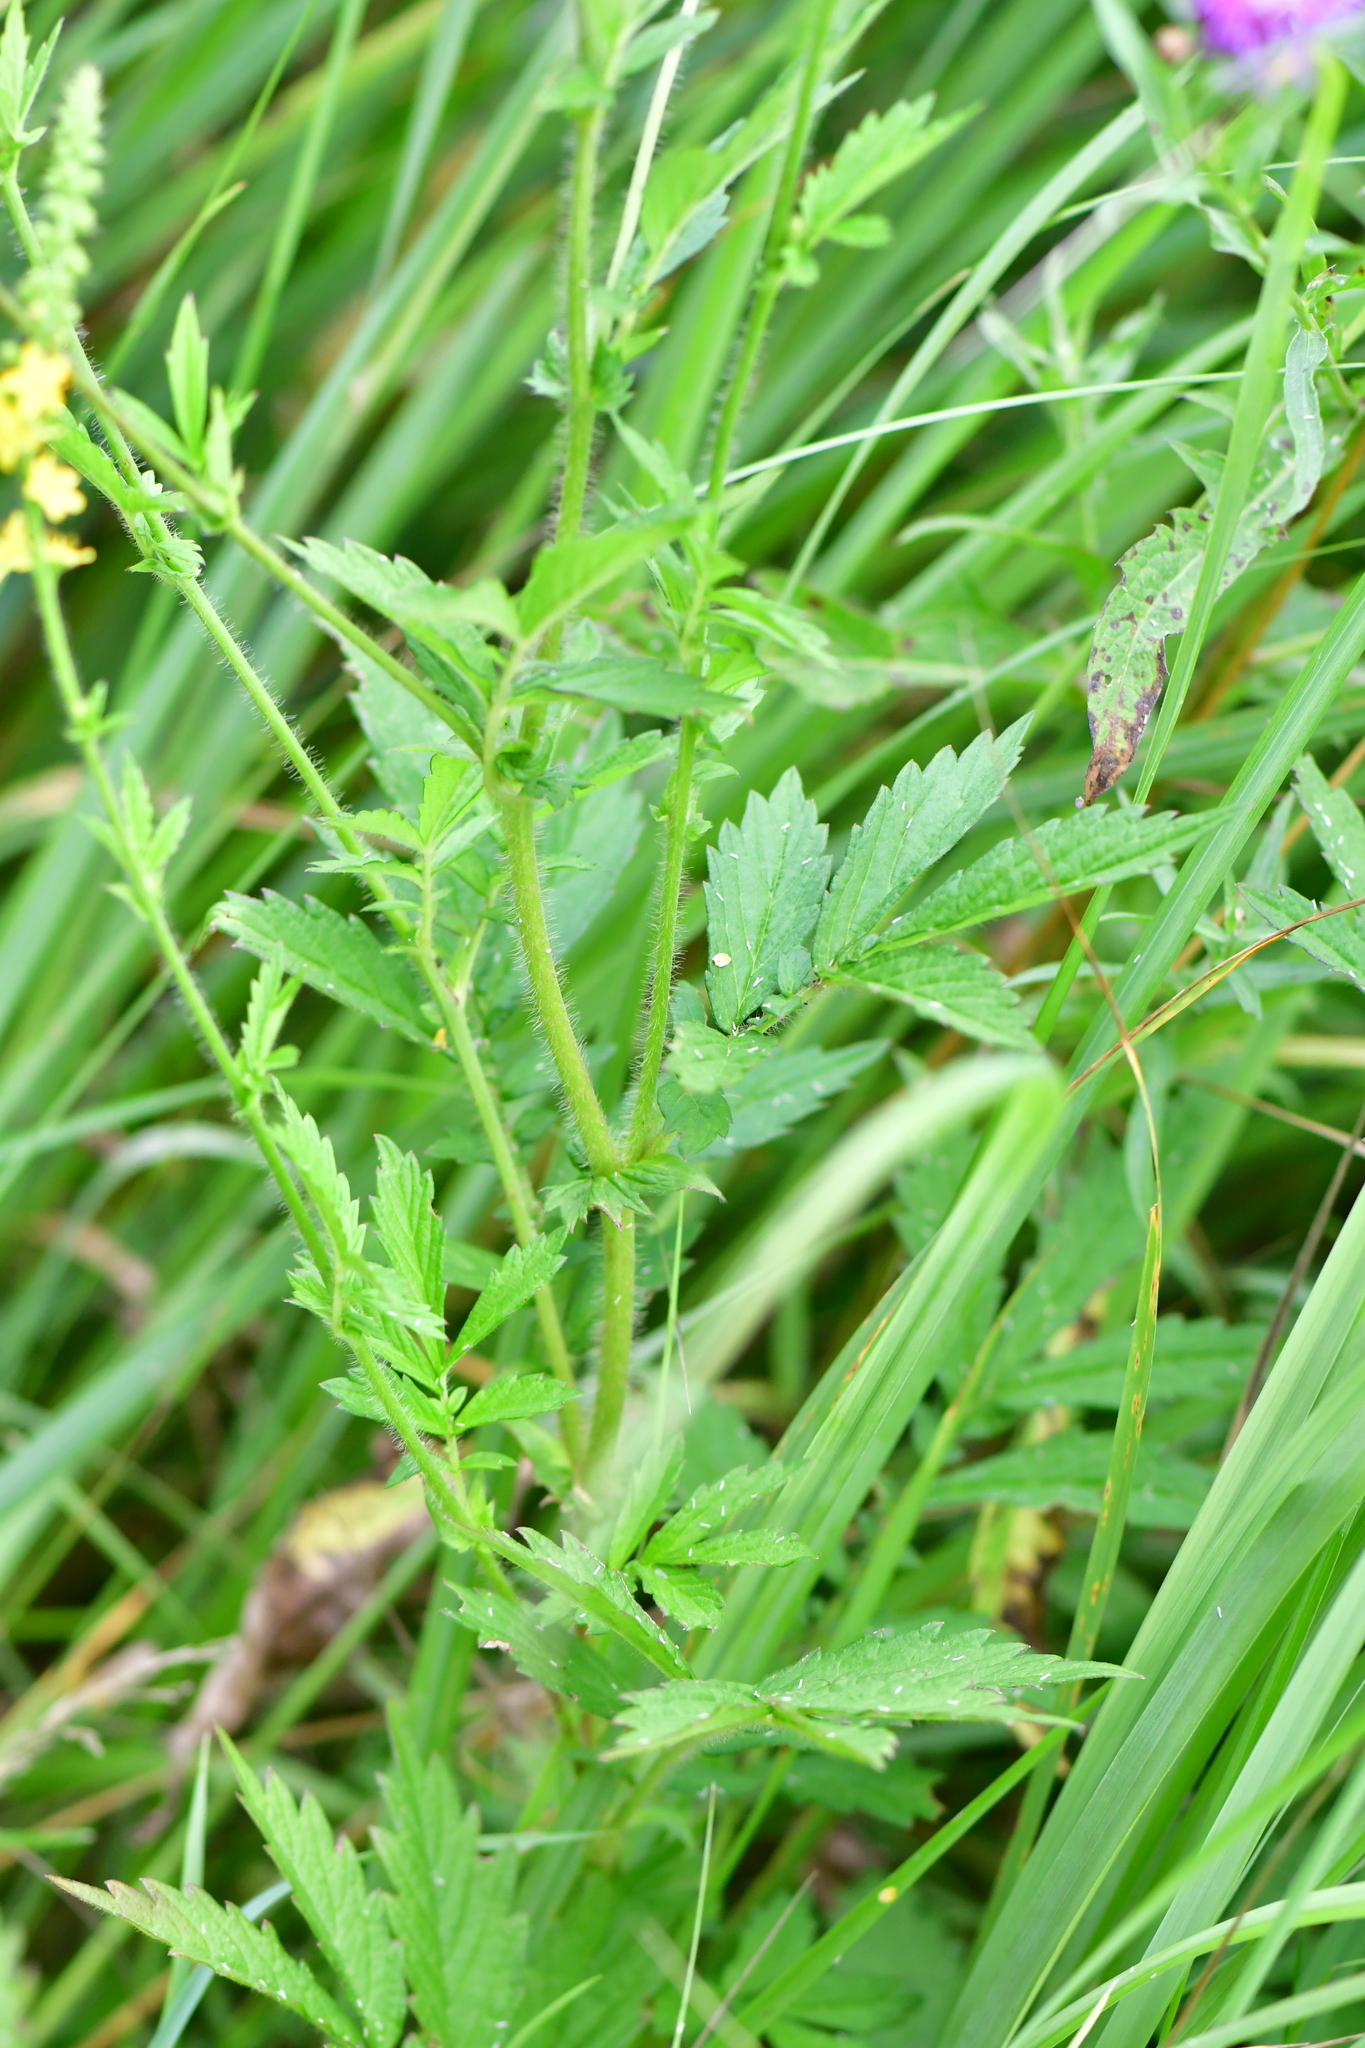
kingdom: Plantae
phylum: Tracheophyta
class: Magnoliopsida
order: Rosales
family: Rosaceae
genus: Agrimonia
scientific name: Agrimonia pilosa
